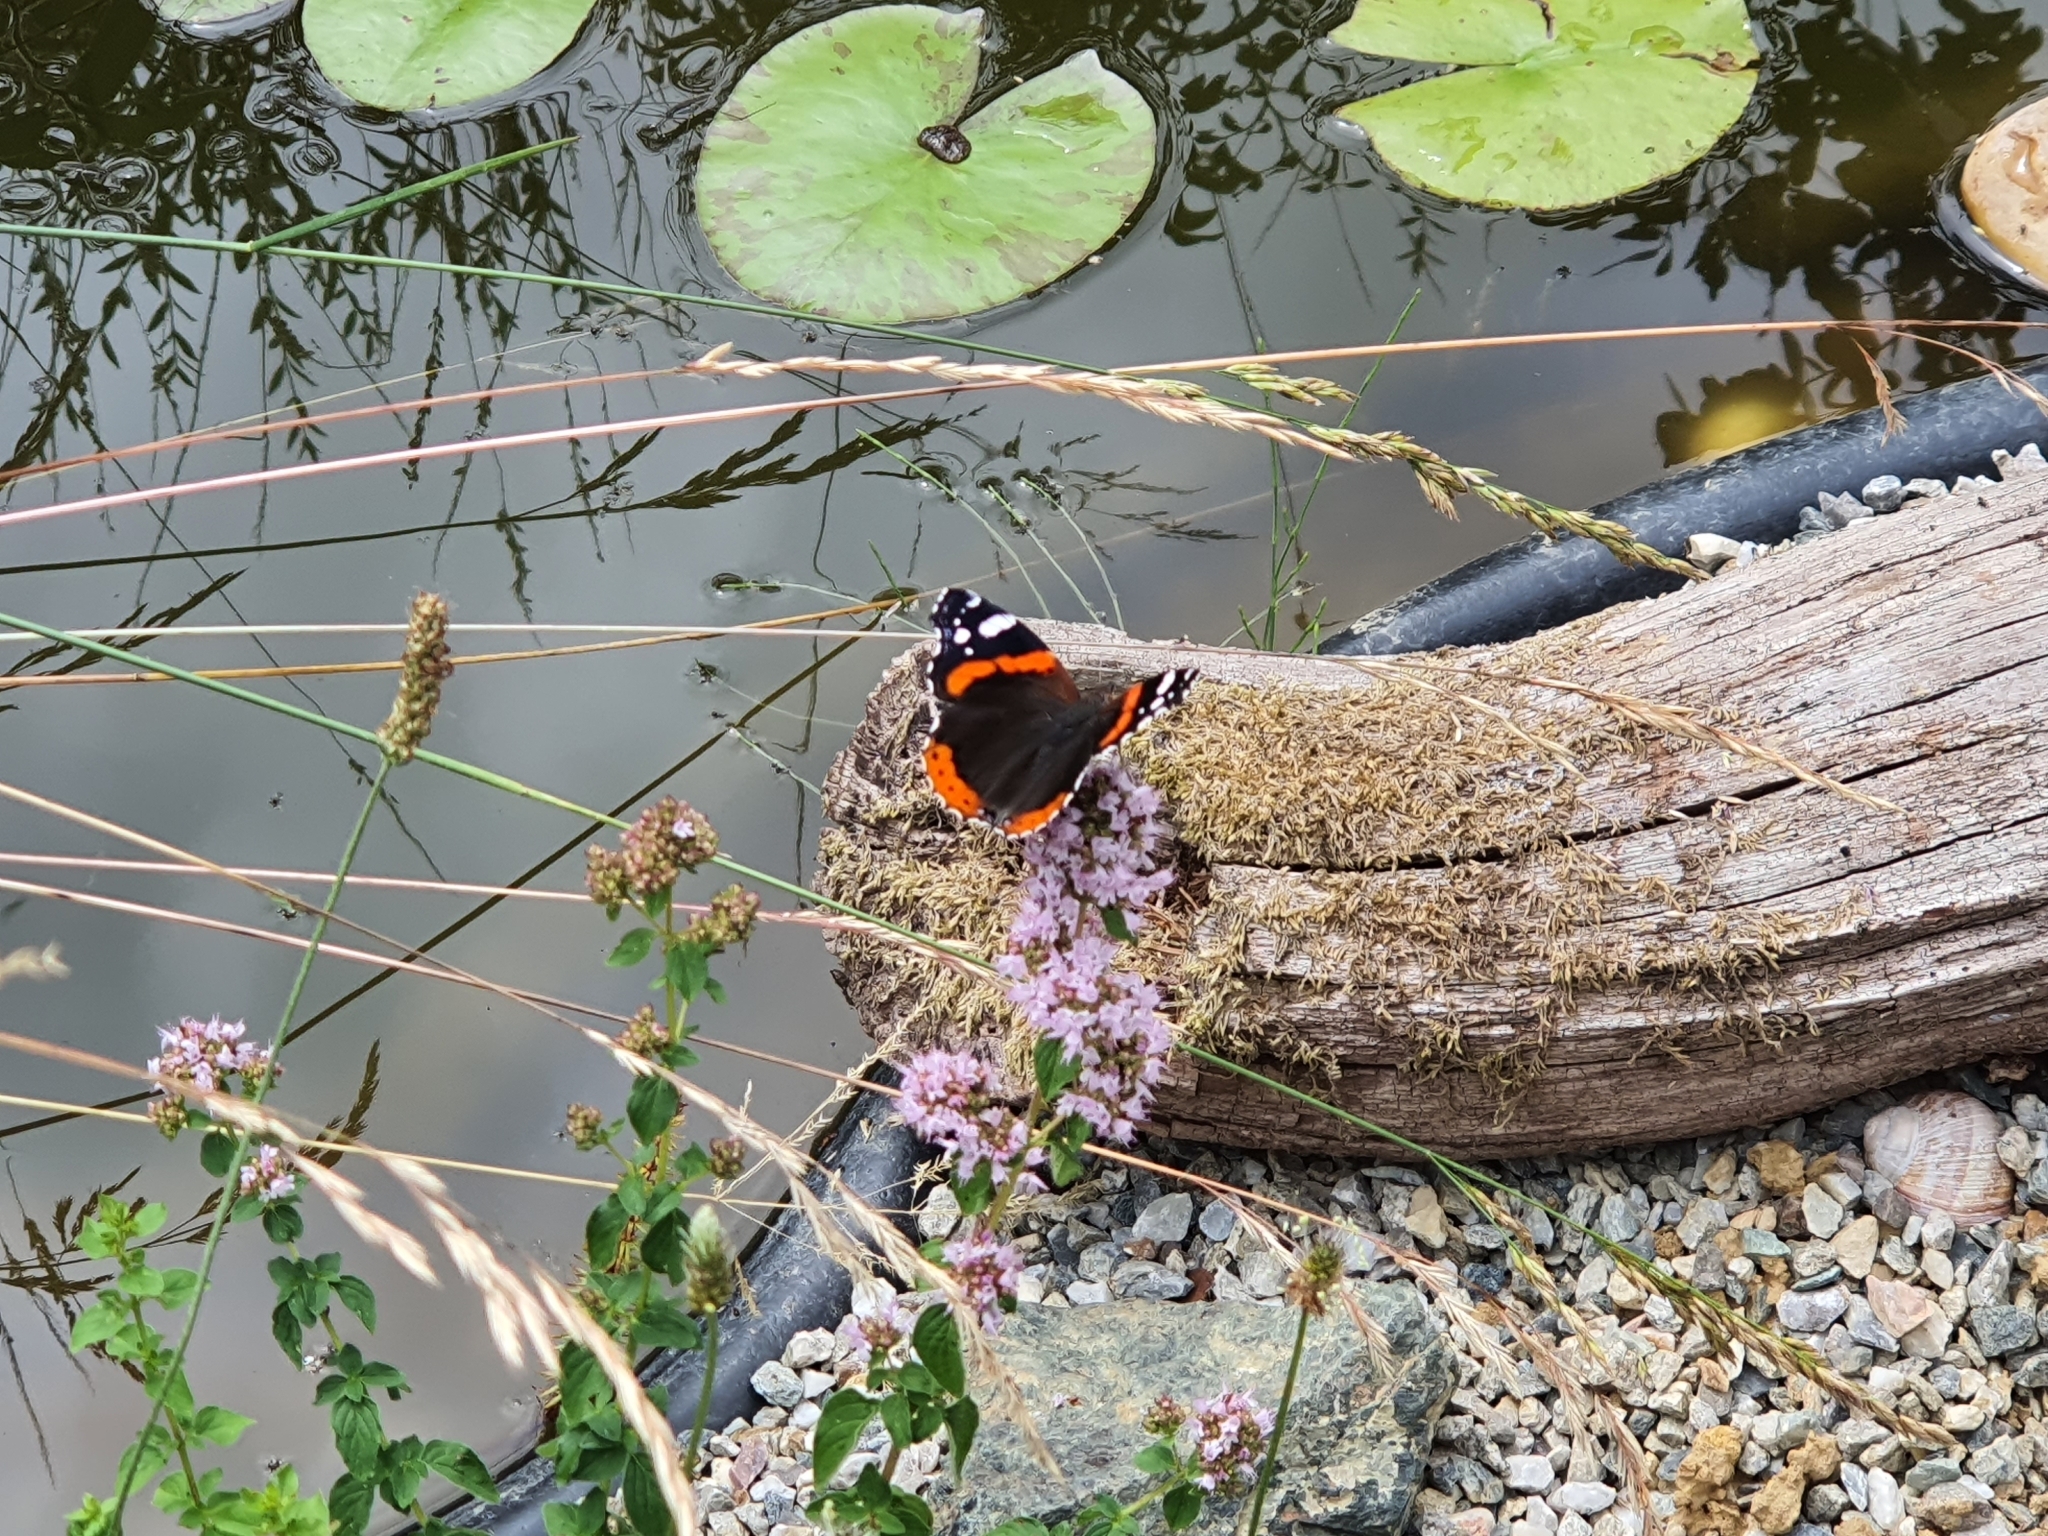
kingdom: Animalia
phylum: Arthropoda
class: Insecta
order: Lepidoptera
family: Nymphalidae
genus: Vanessa
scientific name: Vanessa atalanta
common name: Red admiral
